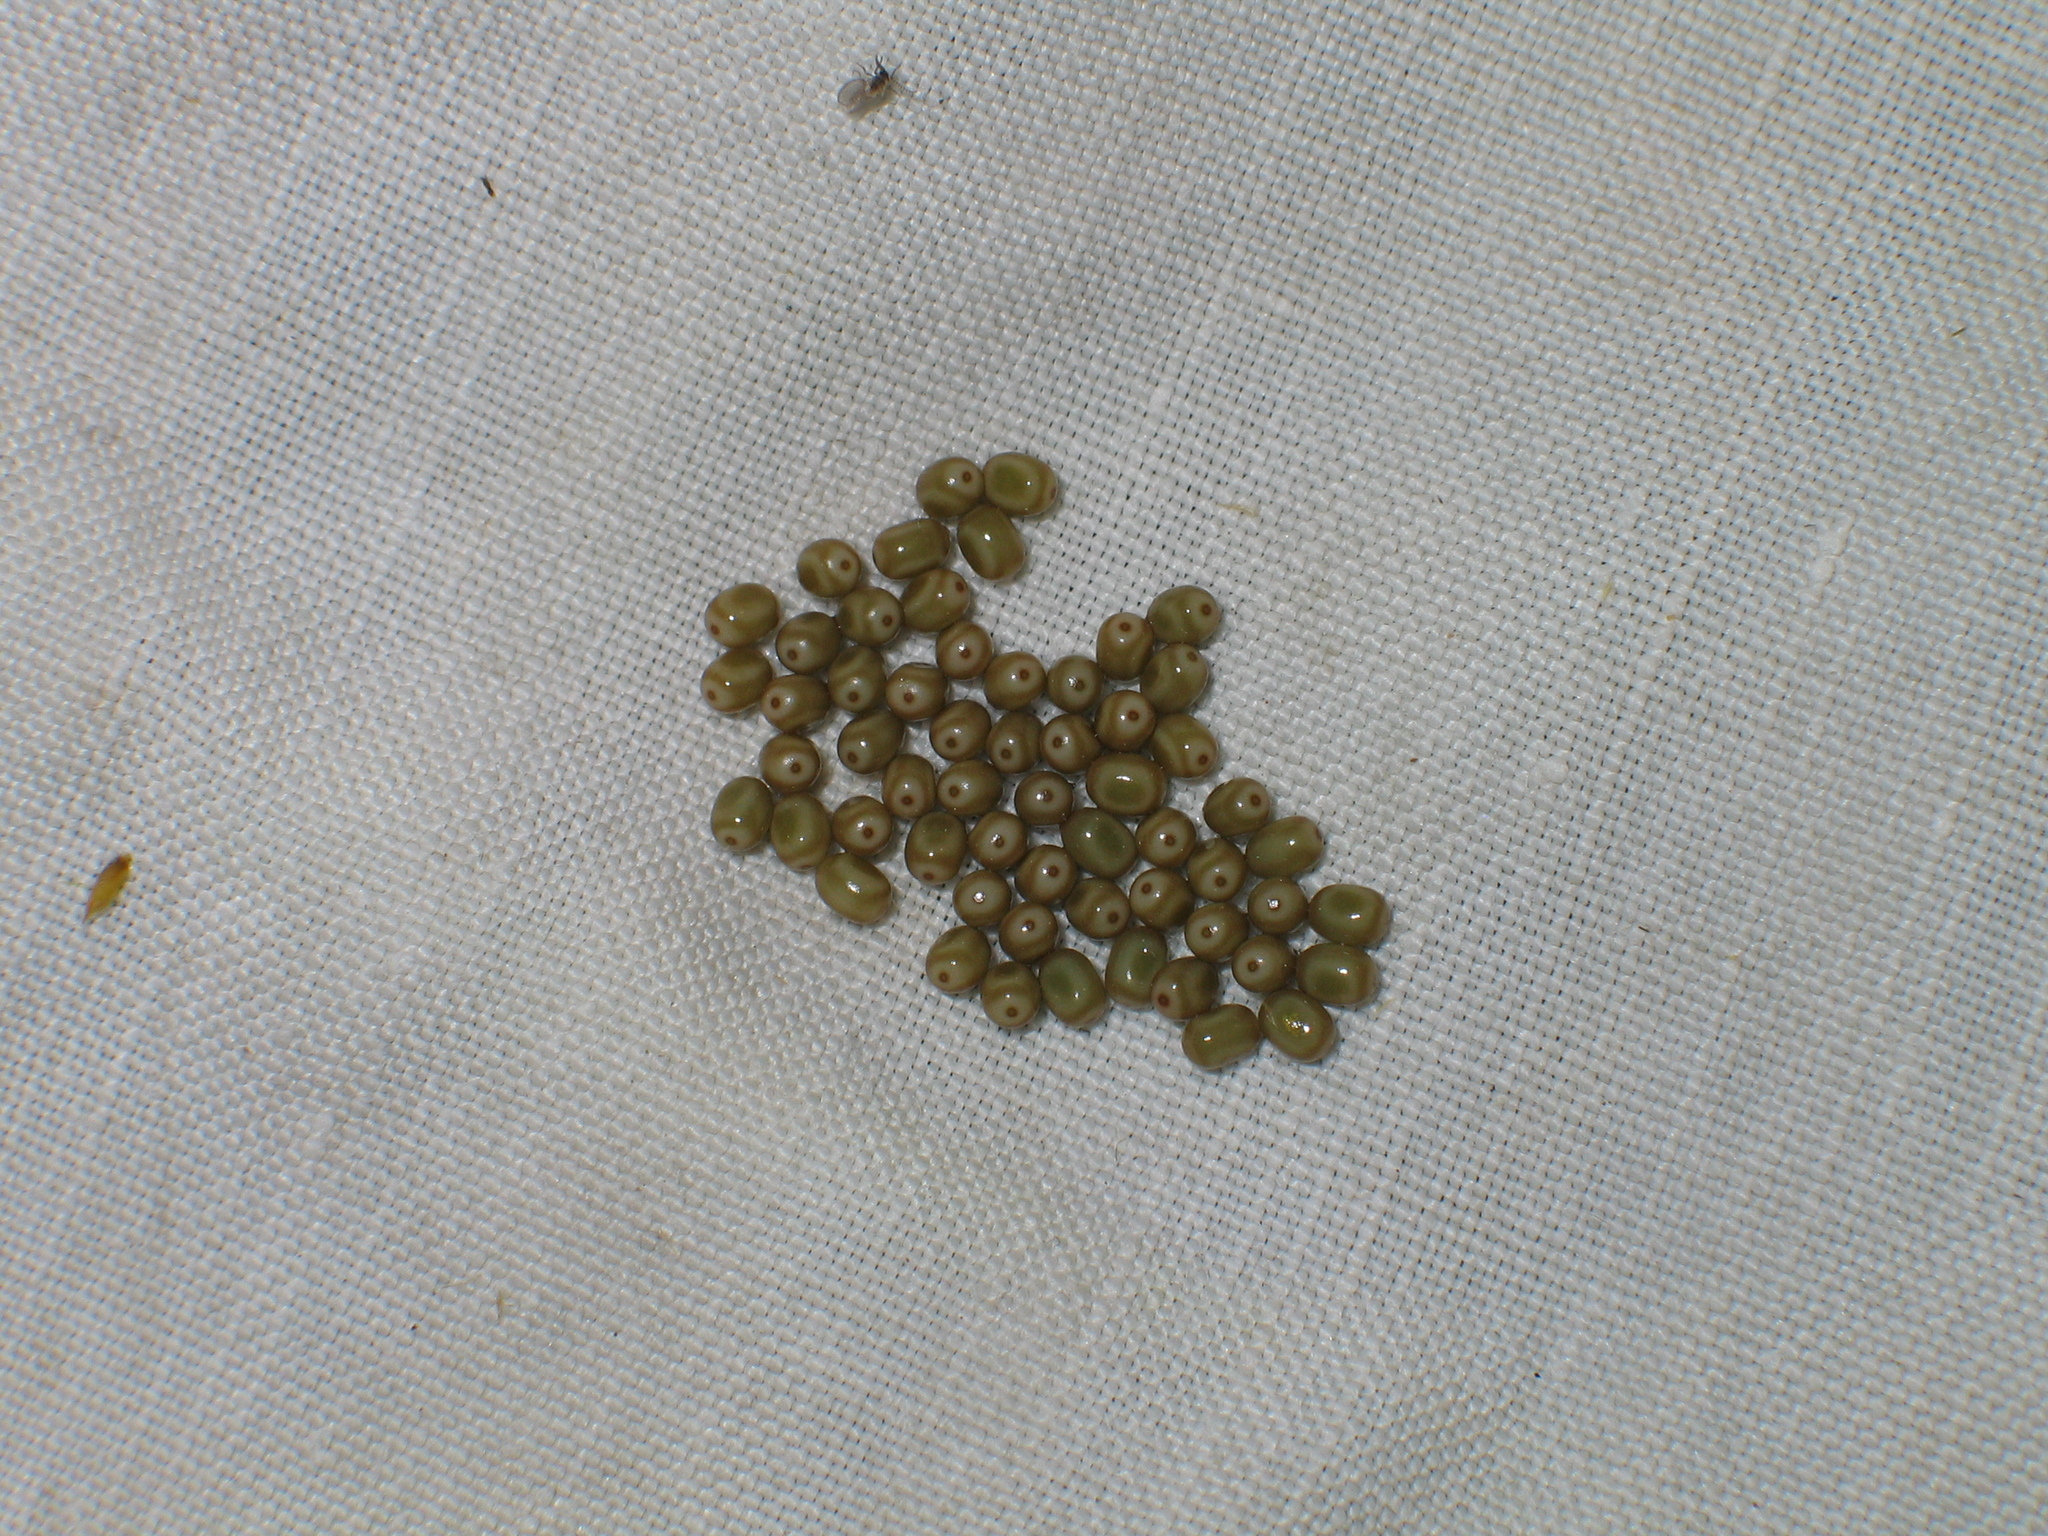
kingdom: Animalia
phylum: Arthropoda
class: Insecta
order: Lepidoptera
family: Lasiocampidae
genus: Macrothylacia
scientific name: Macrothylacia rubi
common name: Fox moth
